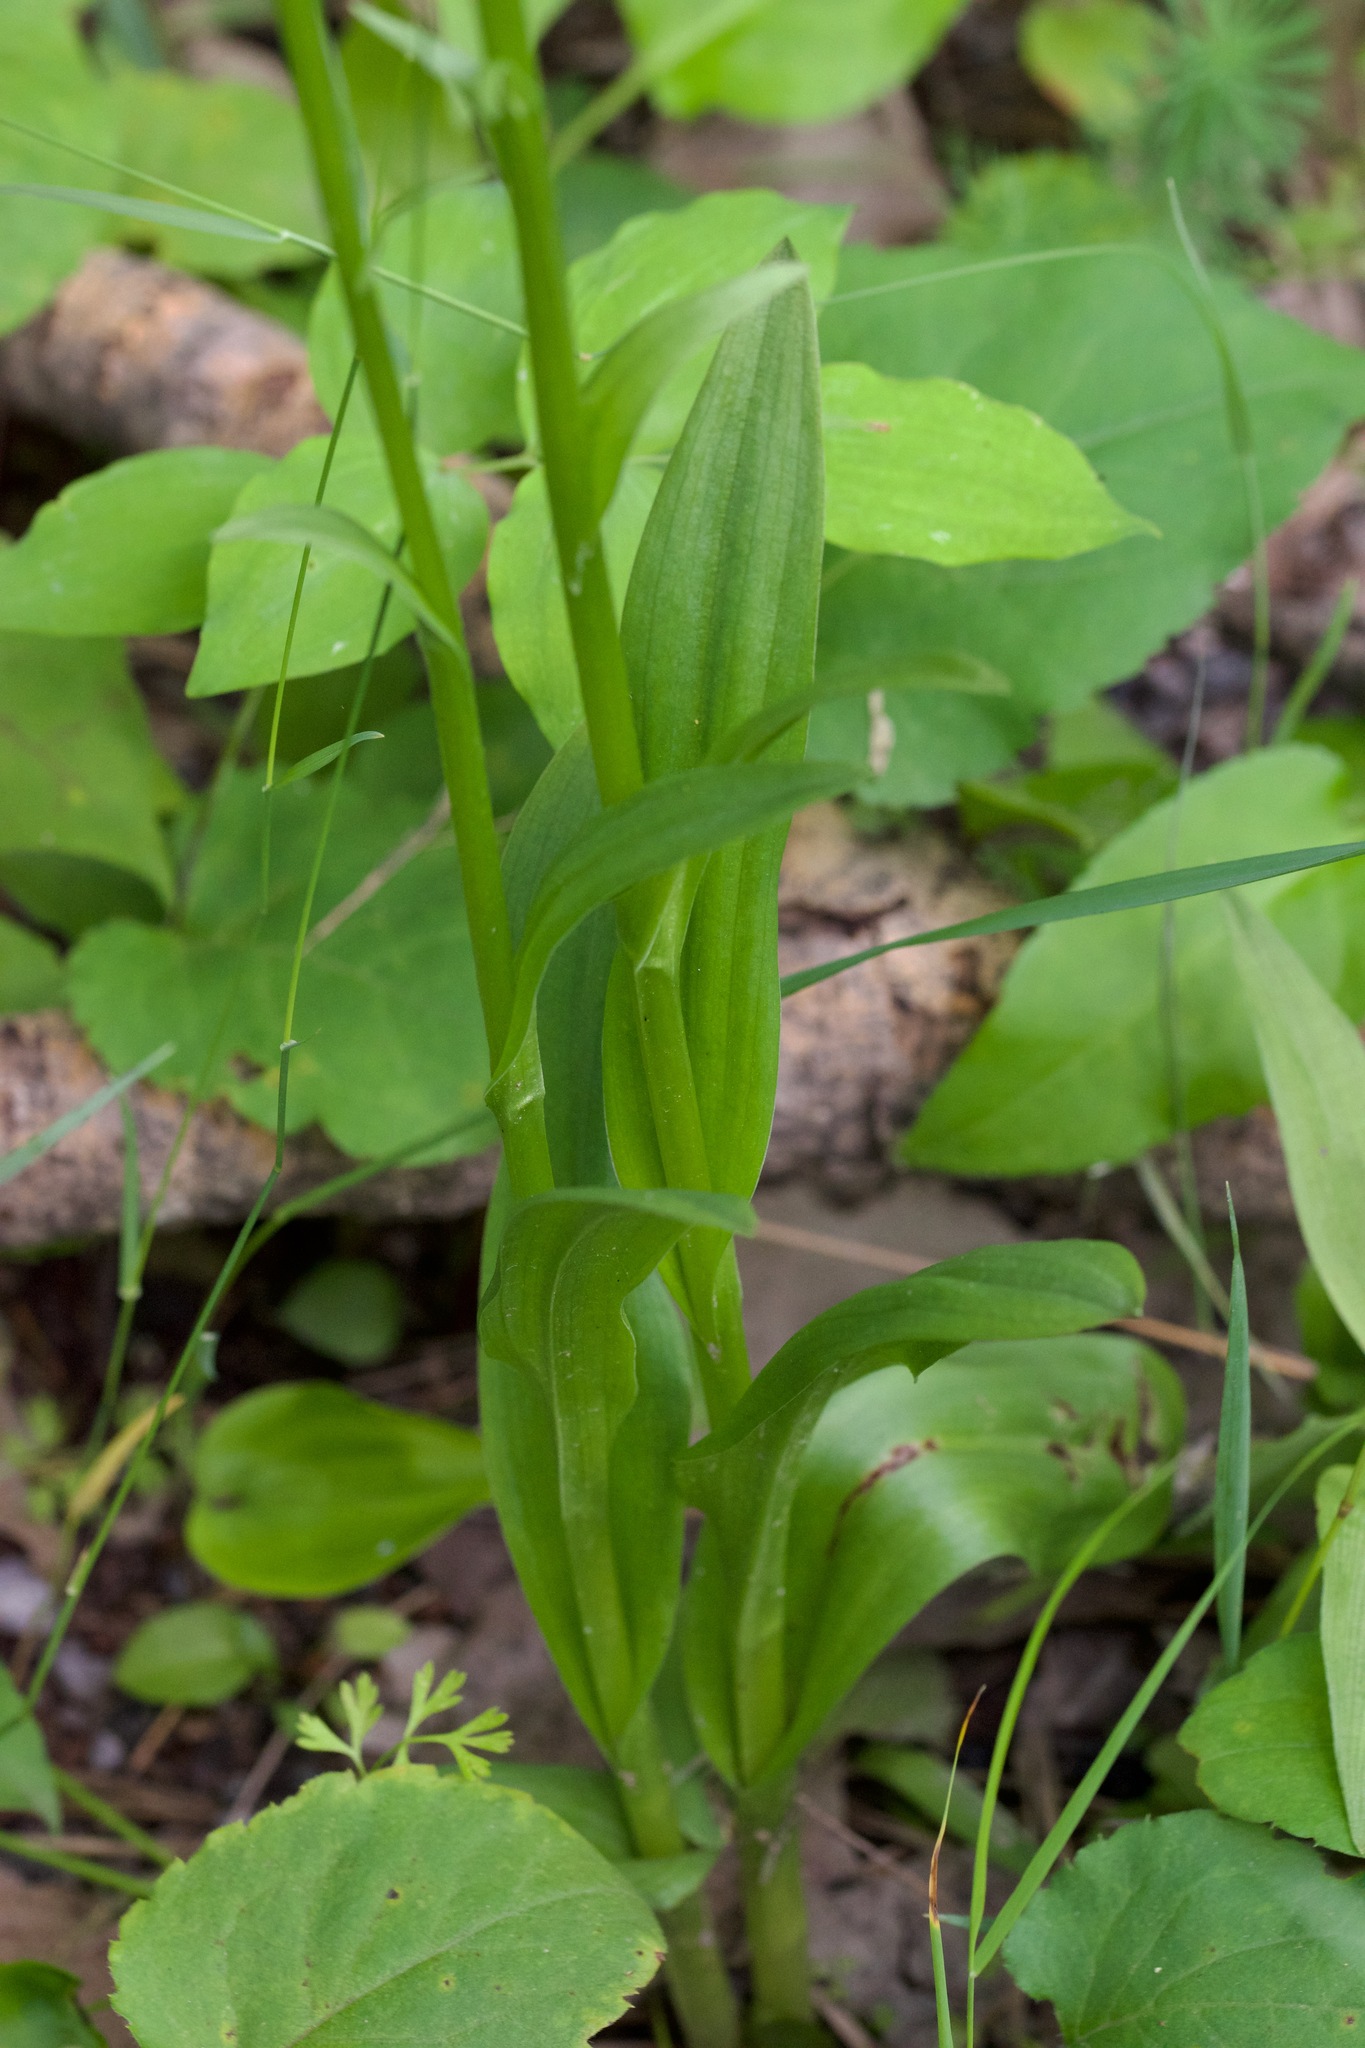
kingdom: Plantae
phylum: Tracheophyta
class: Liliopsida
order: Asparagales
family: Orchidaceae
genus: Platanthera
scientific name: Platanthera aquilonis
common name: Northern green orchid
